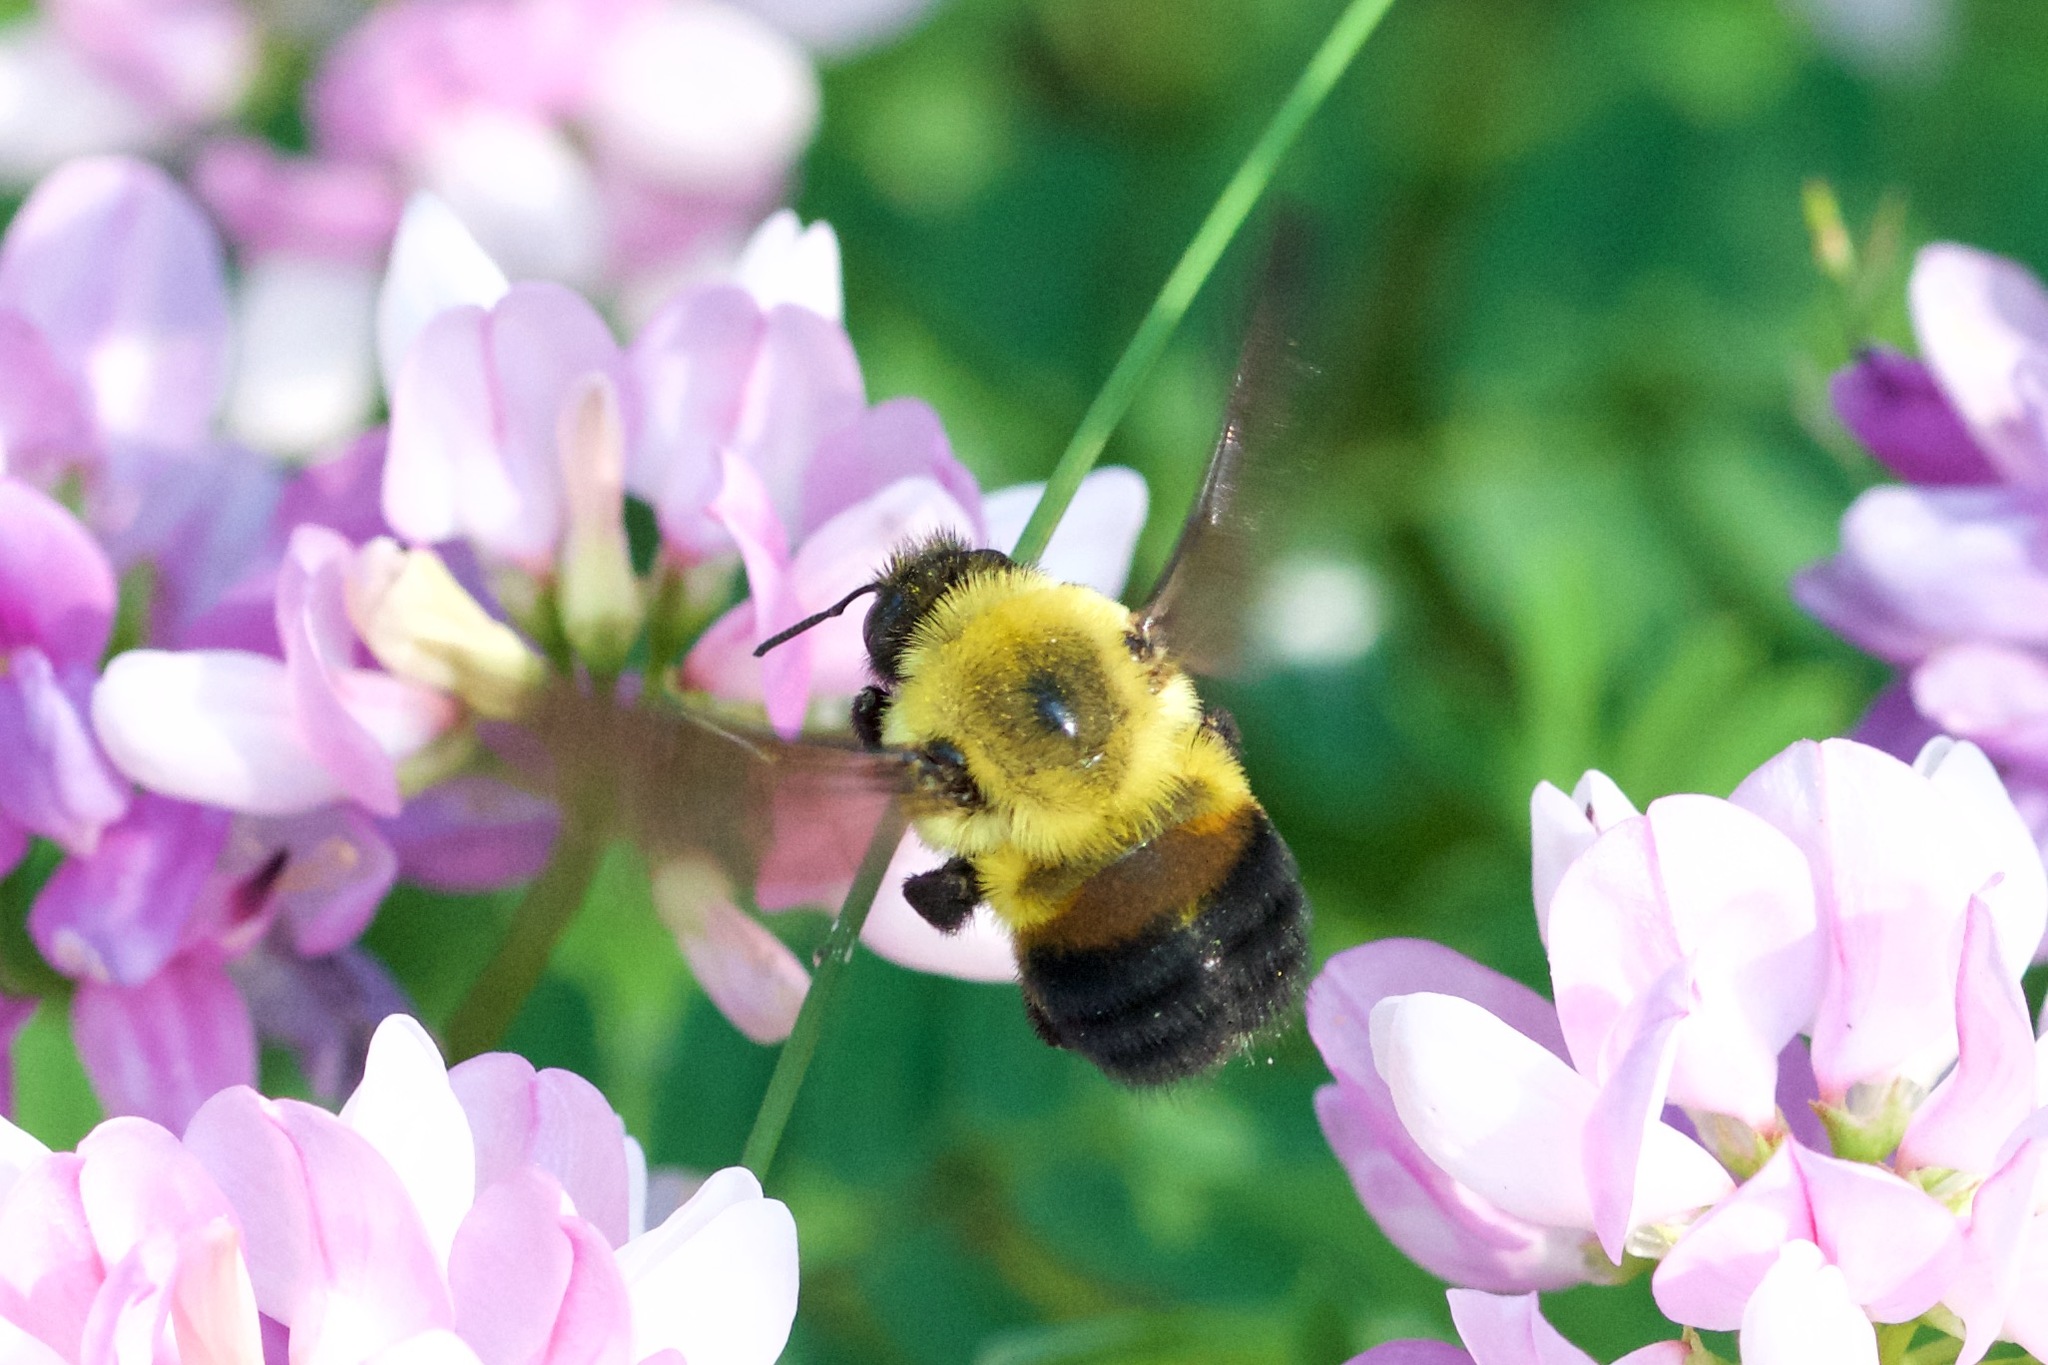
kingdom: Animalia
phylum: Arthropoda
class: Insecta
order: Hymenoptera
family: Apidae
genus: Bombus
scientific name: Bombus griseocollis
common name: Brown-belted bumble bee
